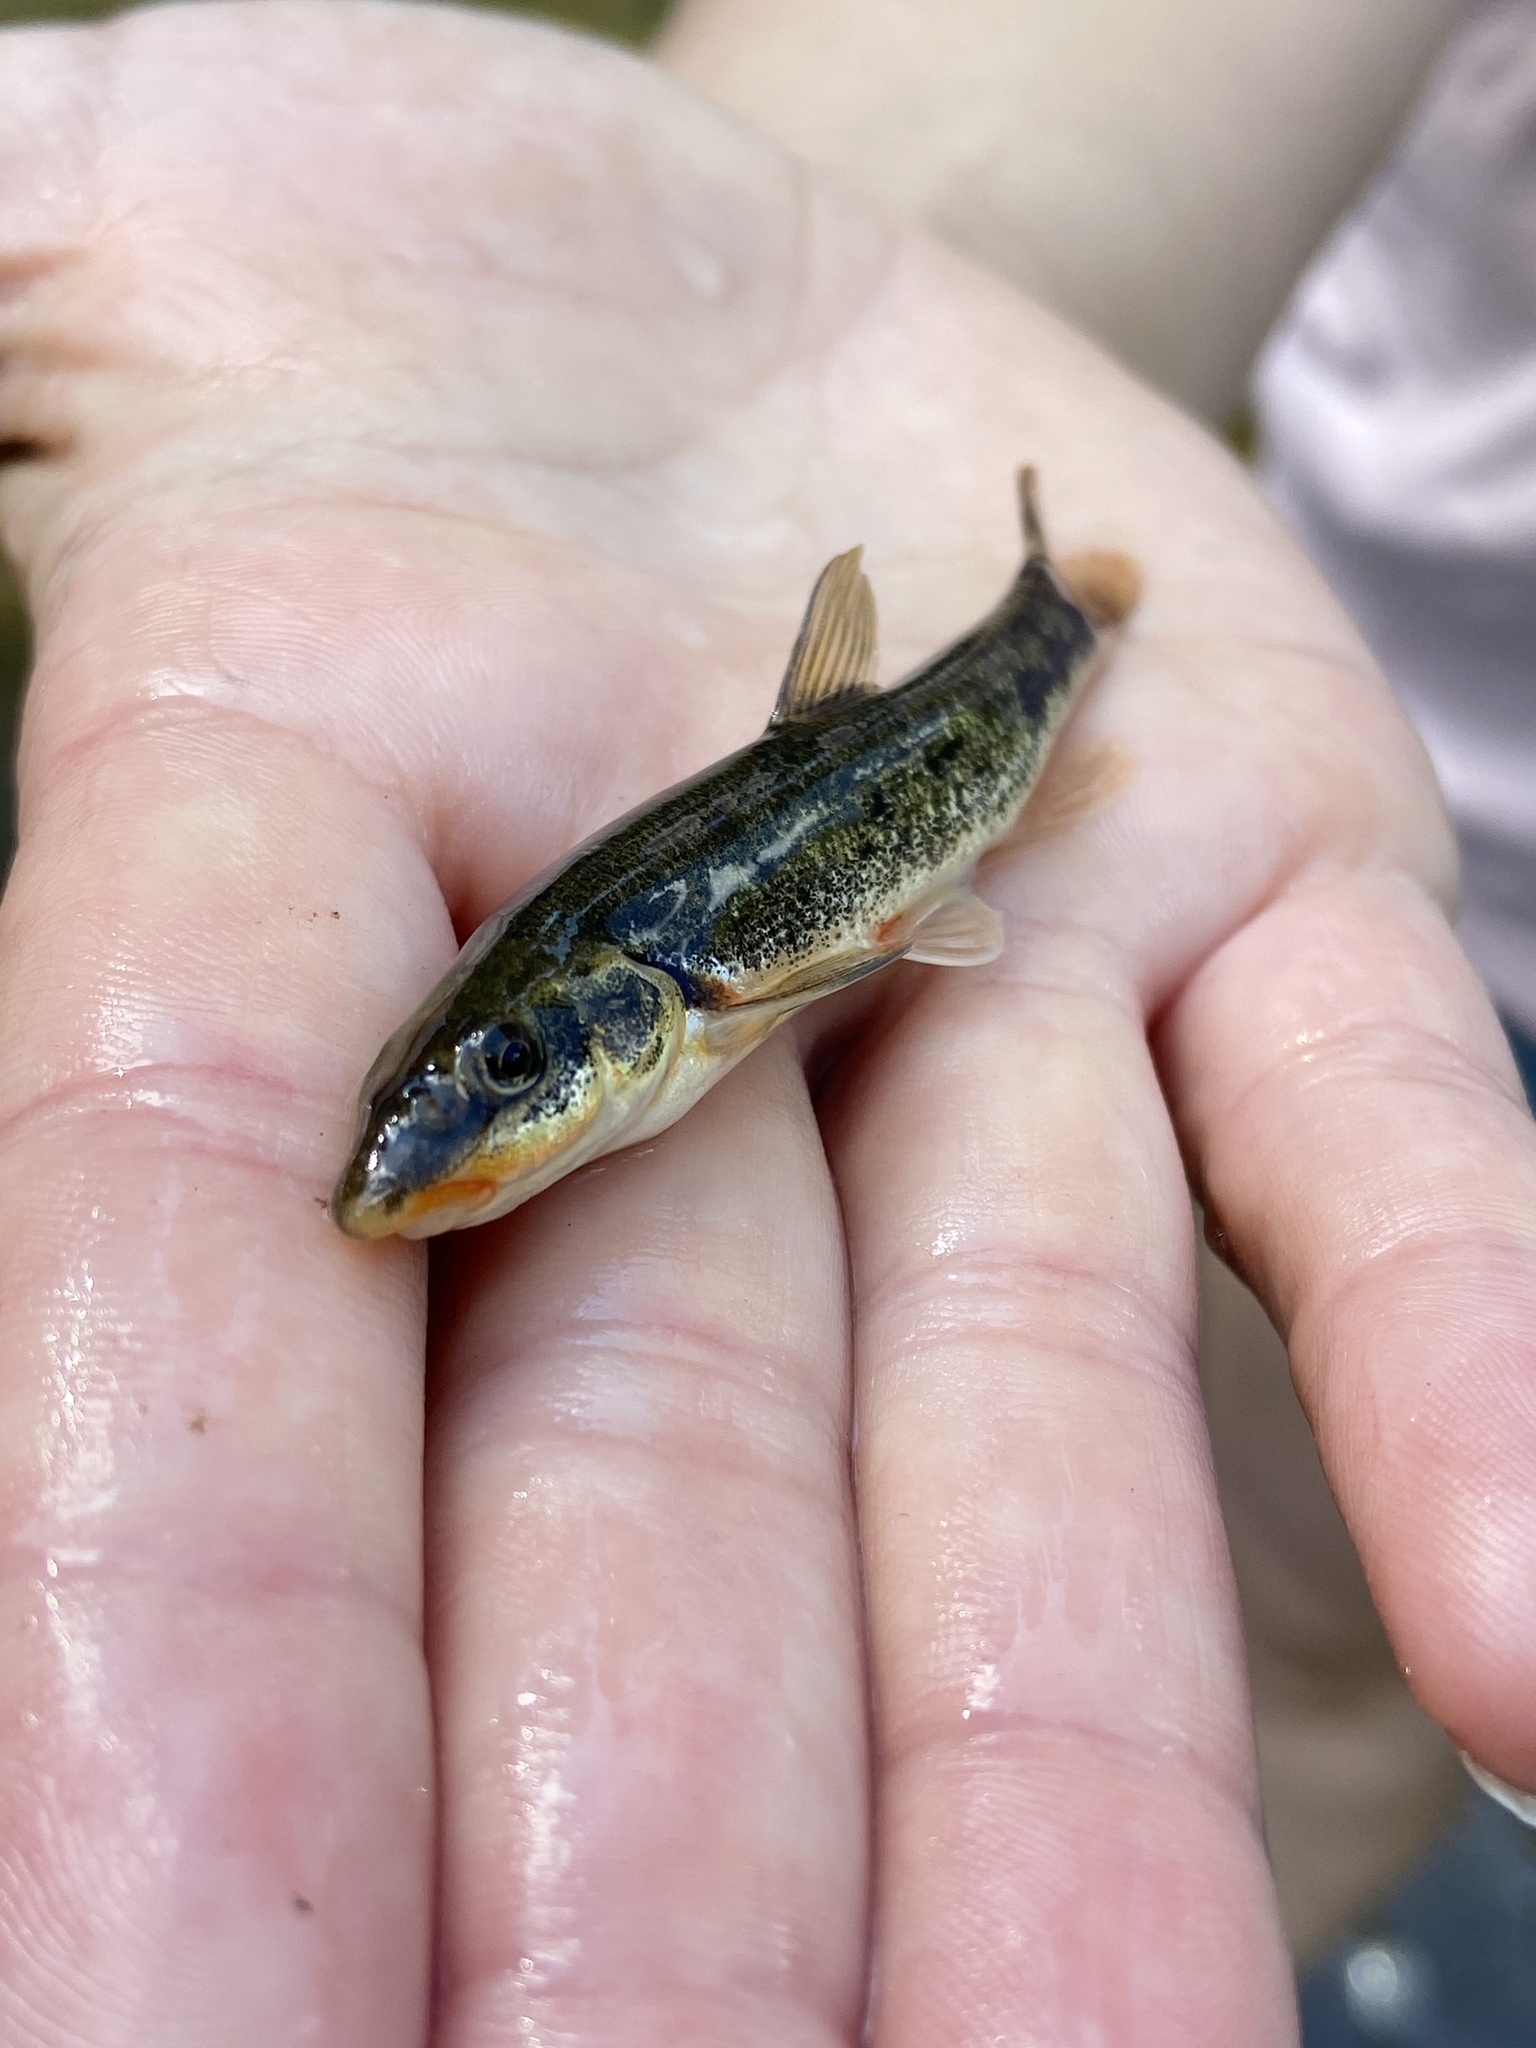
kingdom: Animalia
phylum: Chordata
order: Cypriniformes
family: Cyprinidae
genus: Rhinichthys
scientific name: Rhinichthys cataractae
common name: Longnose dace
